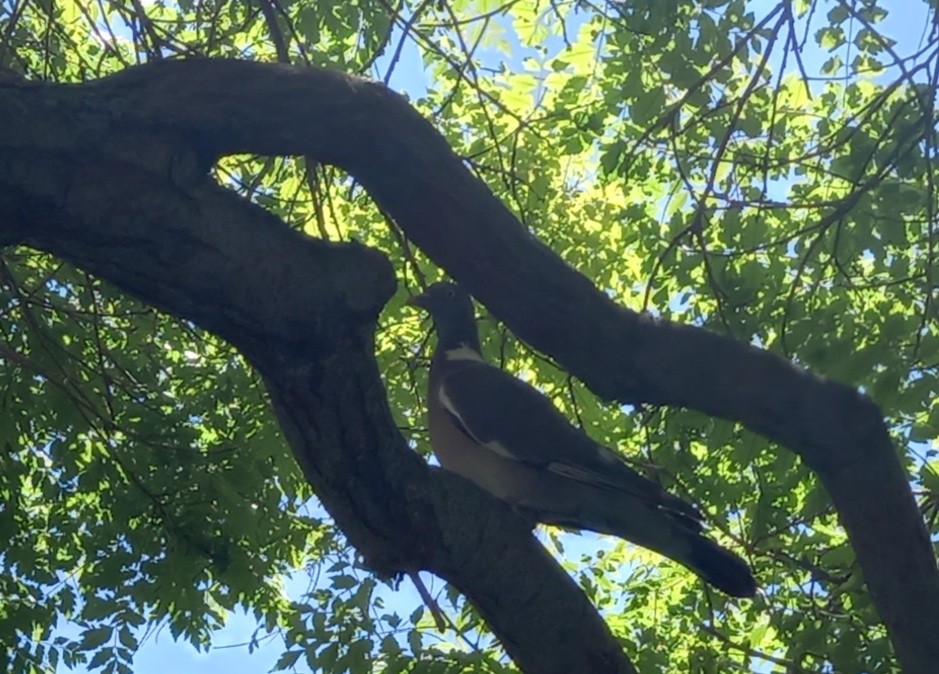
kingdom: Animalia
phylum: Chordata
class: Aves
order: Columbiformes
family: Columbidae
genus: Columba
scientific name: Columba palumbus
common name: Common wood pigeon
